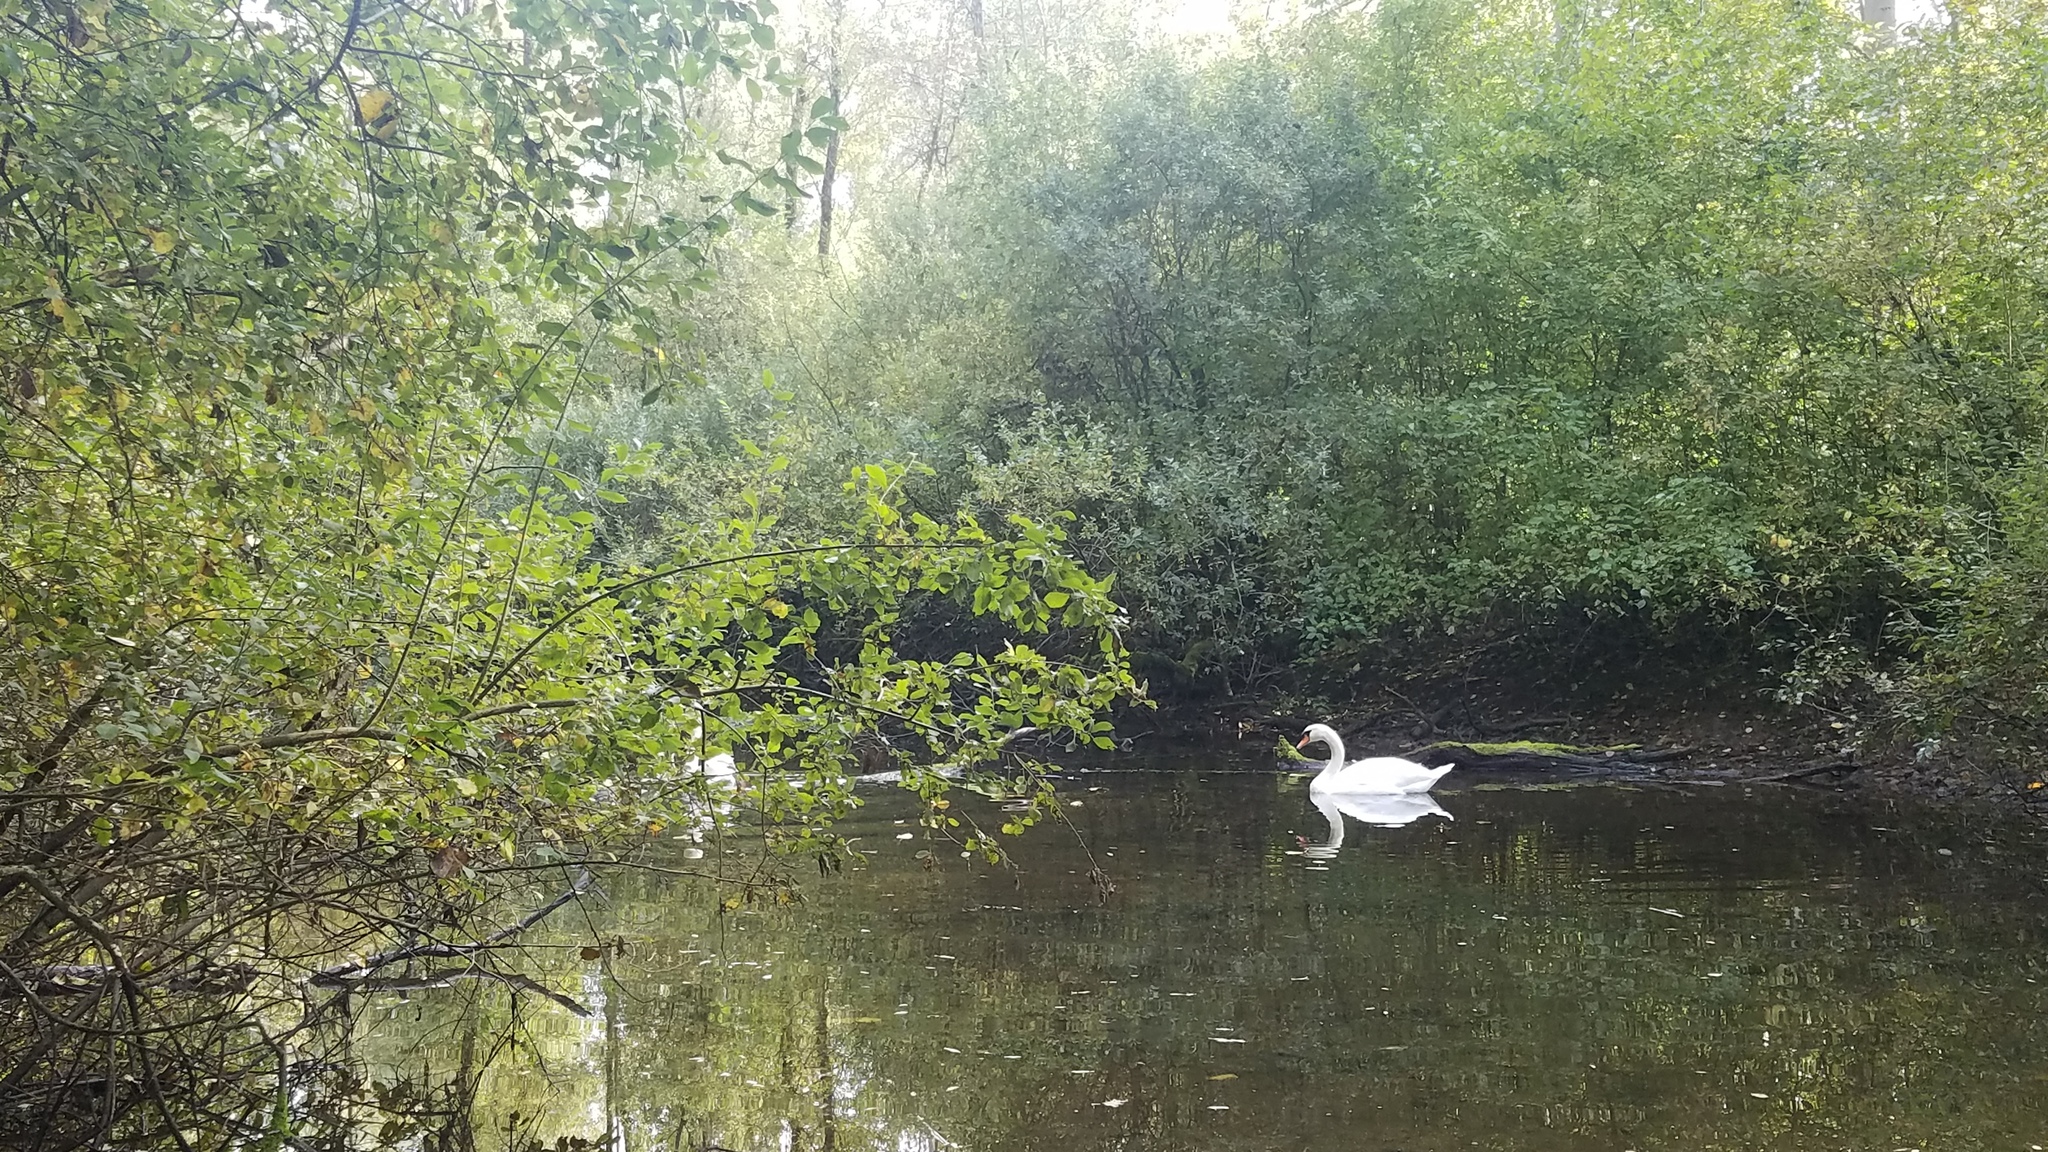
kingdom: Animalia
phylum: Chordata
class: Aves
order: Anseriformes
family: Anatidae
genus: Cygnus
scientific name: Cygnus olor
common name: Mute swan
